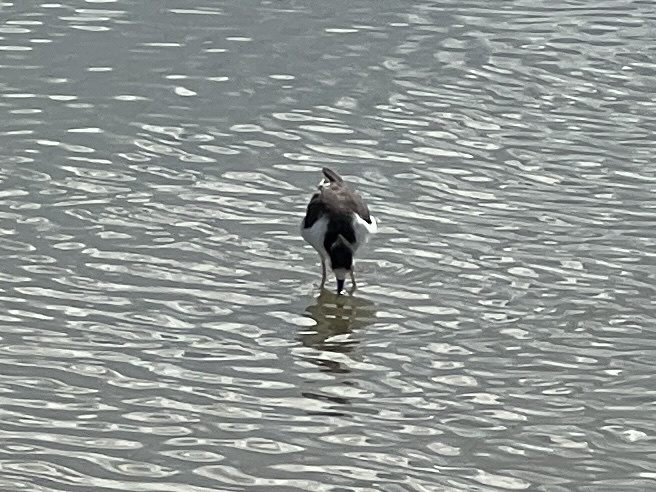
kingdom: Animalia
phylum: Chordata
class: Aves
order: Charadriiformes
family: Recurvirostridae
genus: Himantopus
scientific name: Himantopus mexicanus
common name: Black-necked stilt
